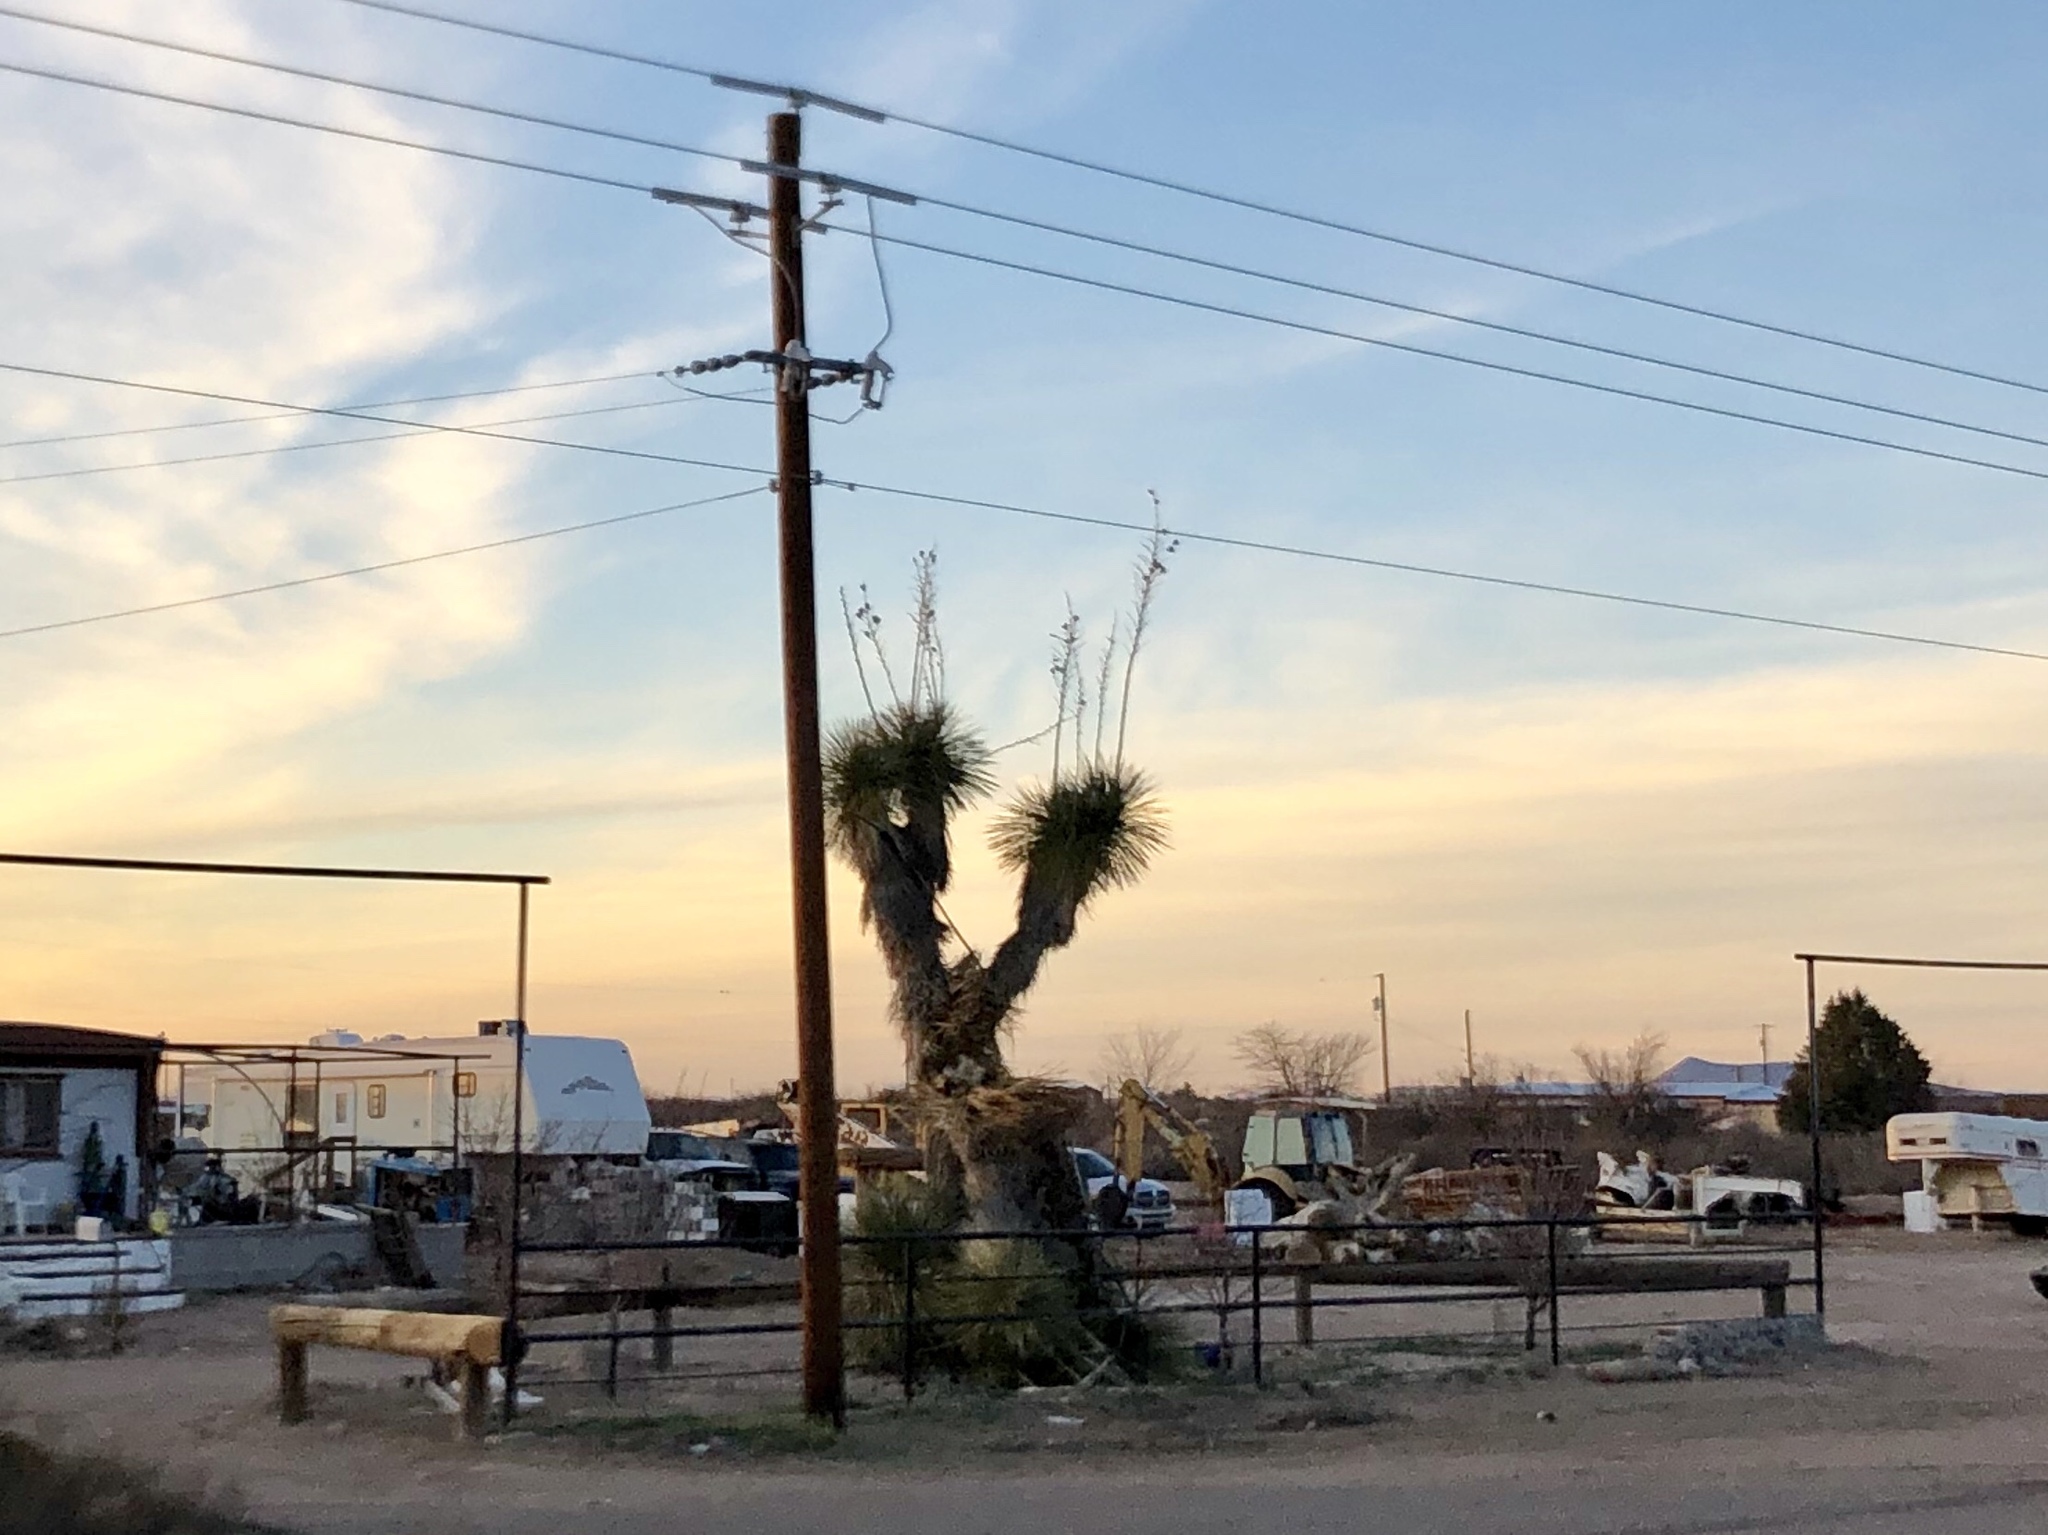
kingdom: Plantae
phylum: Tracheophyta
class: Liliopsida
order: Asparagales
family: Asparagaceae
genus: Yucca
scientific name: Yucca elata
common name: Palmella
